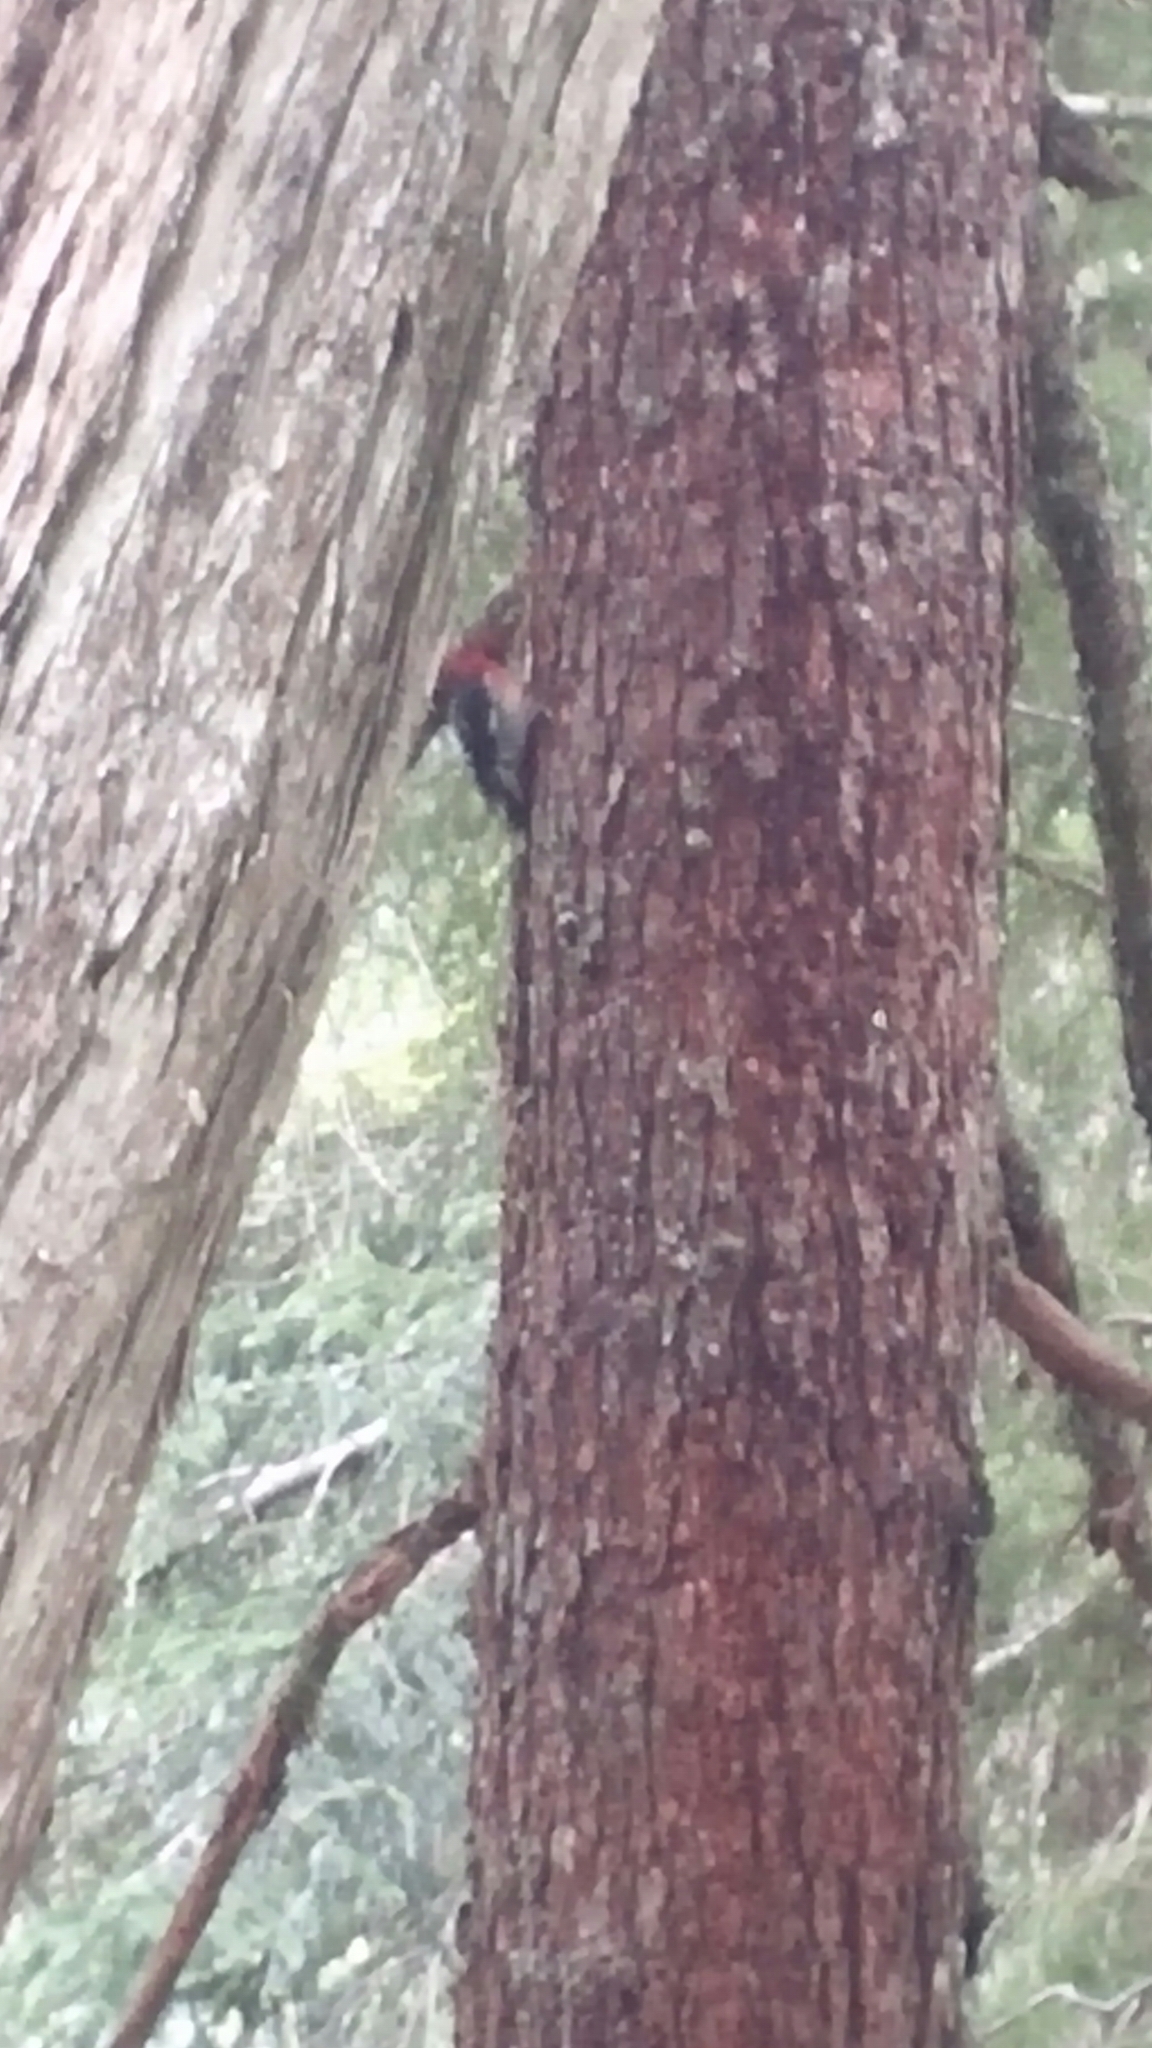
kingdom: Animalia
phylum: Chordata
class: Aves
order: Piciformes
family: Picidae
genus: Sphyrapicus
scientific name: Sphyrapicus ruber
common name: Red-breasted sapsucker
